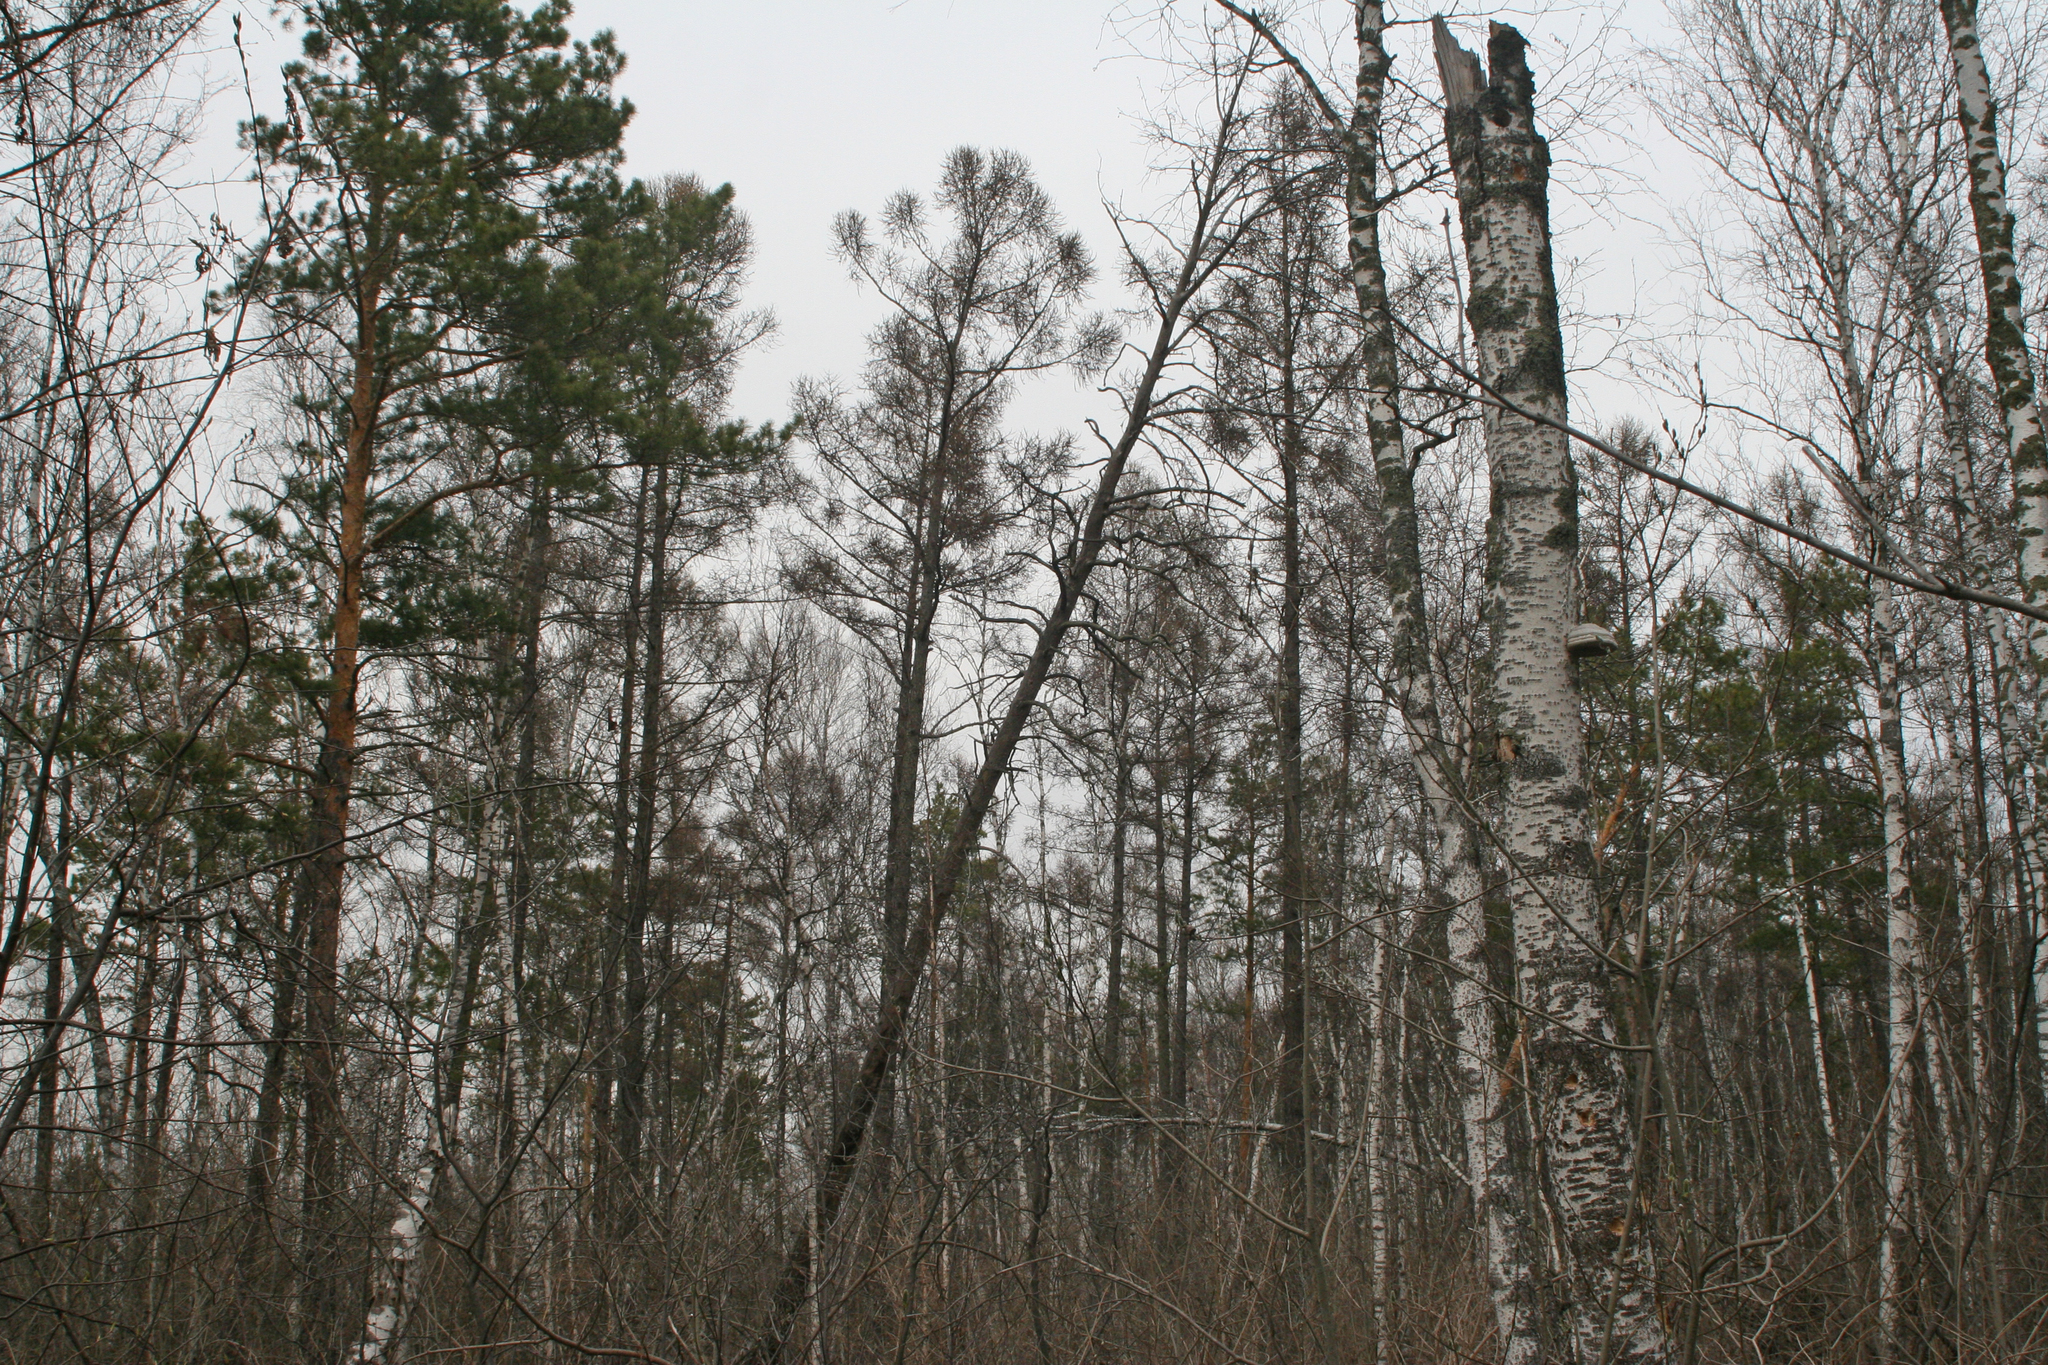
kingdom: Plantae
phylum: Tracheophyta
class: Magnoliopsida
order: Fagales
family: Betulaceae
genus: Betula
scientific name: Betula pubescens
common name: Downy birch
